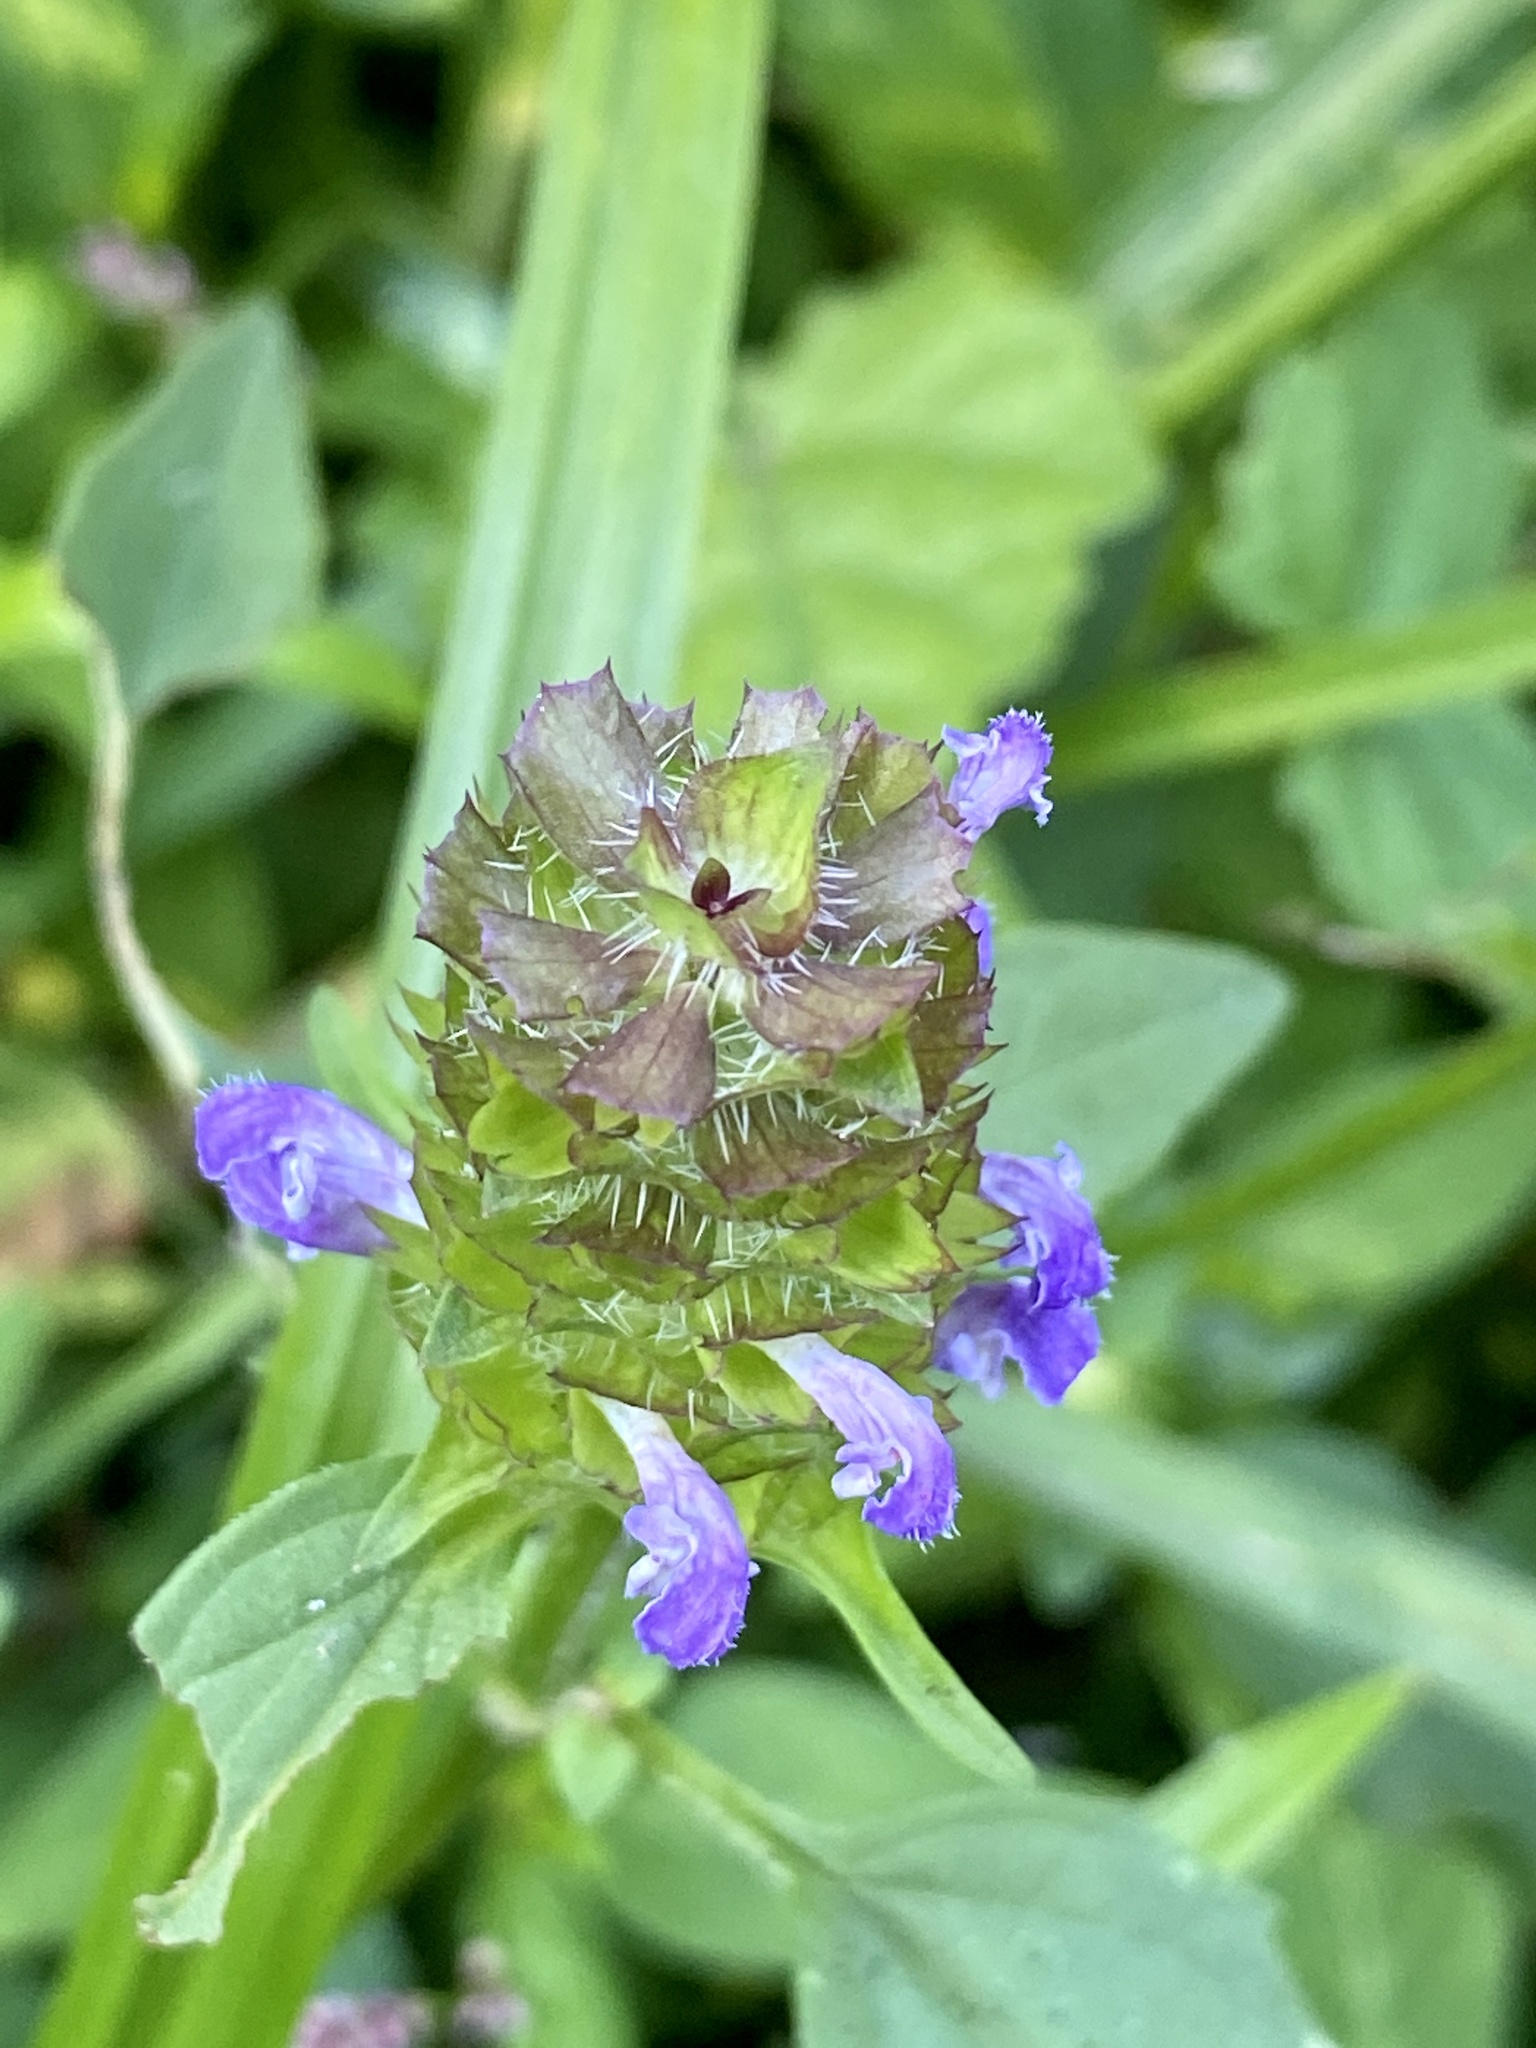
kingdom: Plantae
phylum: Tracheophyta
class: Magnoliopsida
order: Lamiales
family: Lamiaceae
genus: Prunella
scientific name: Prunella vulgaris
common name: Heal-all
